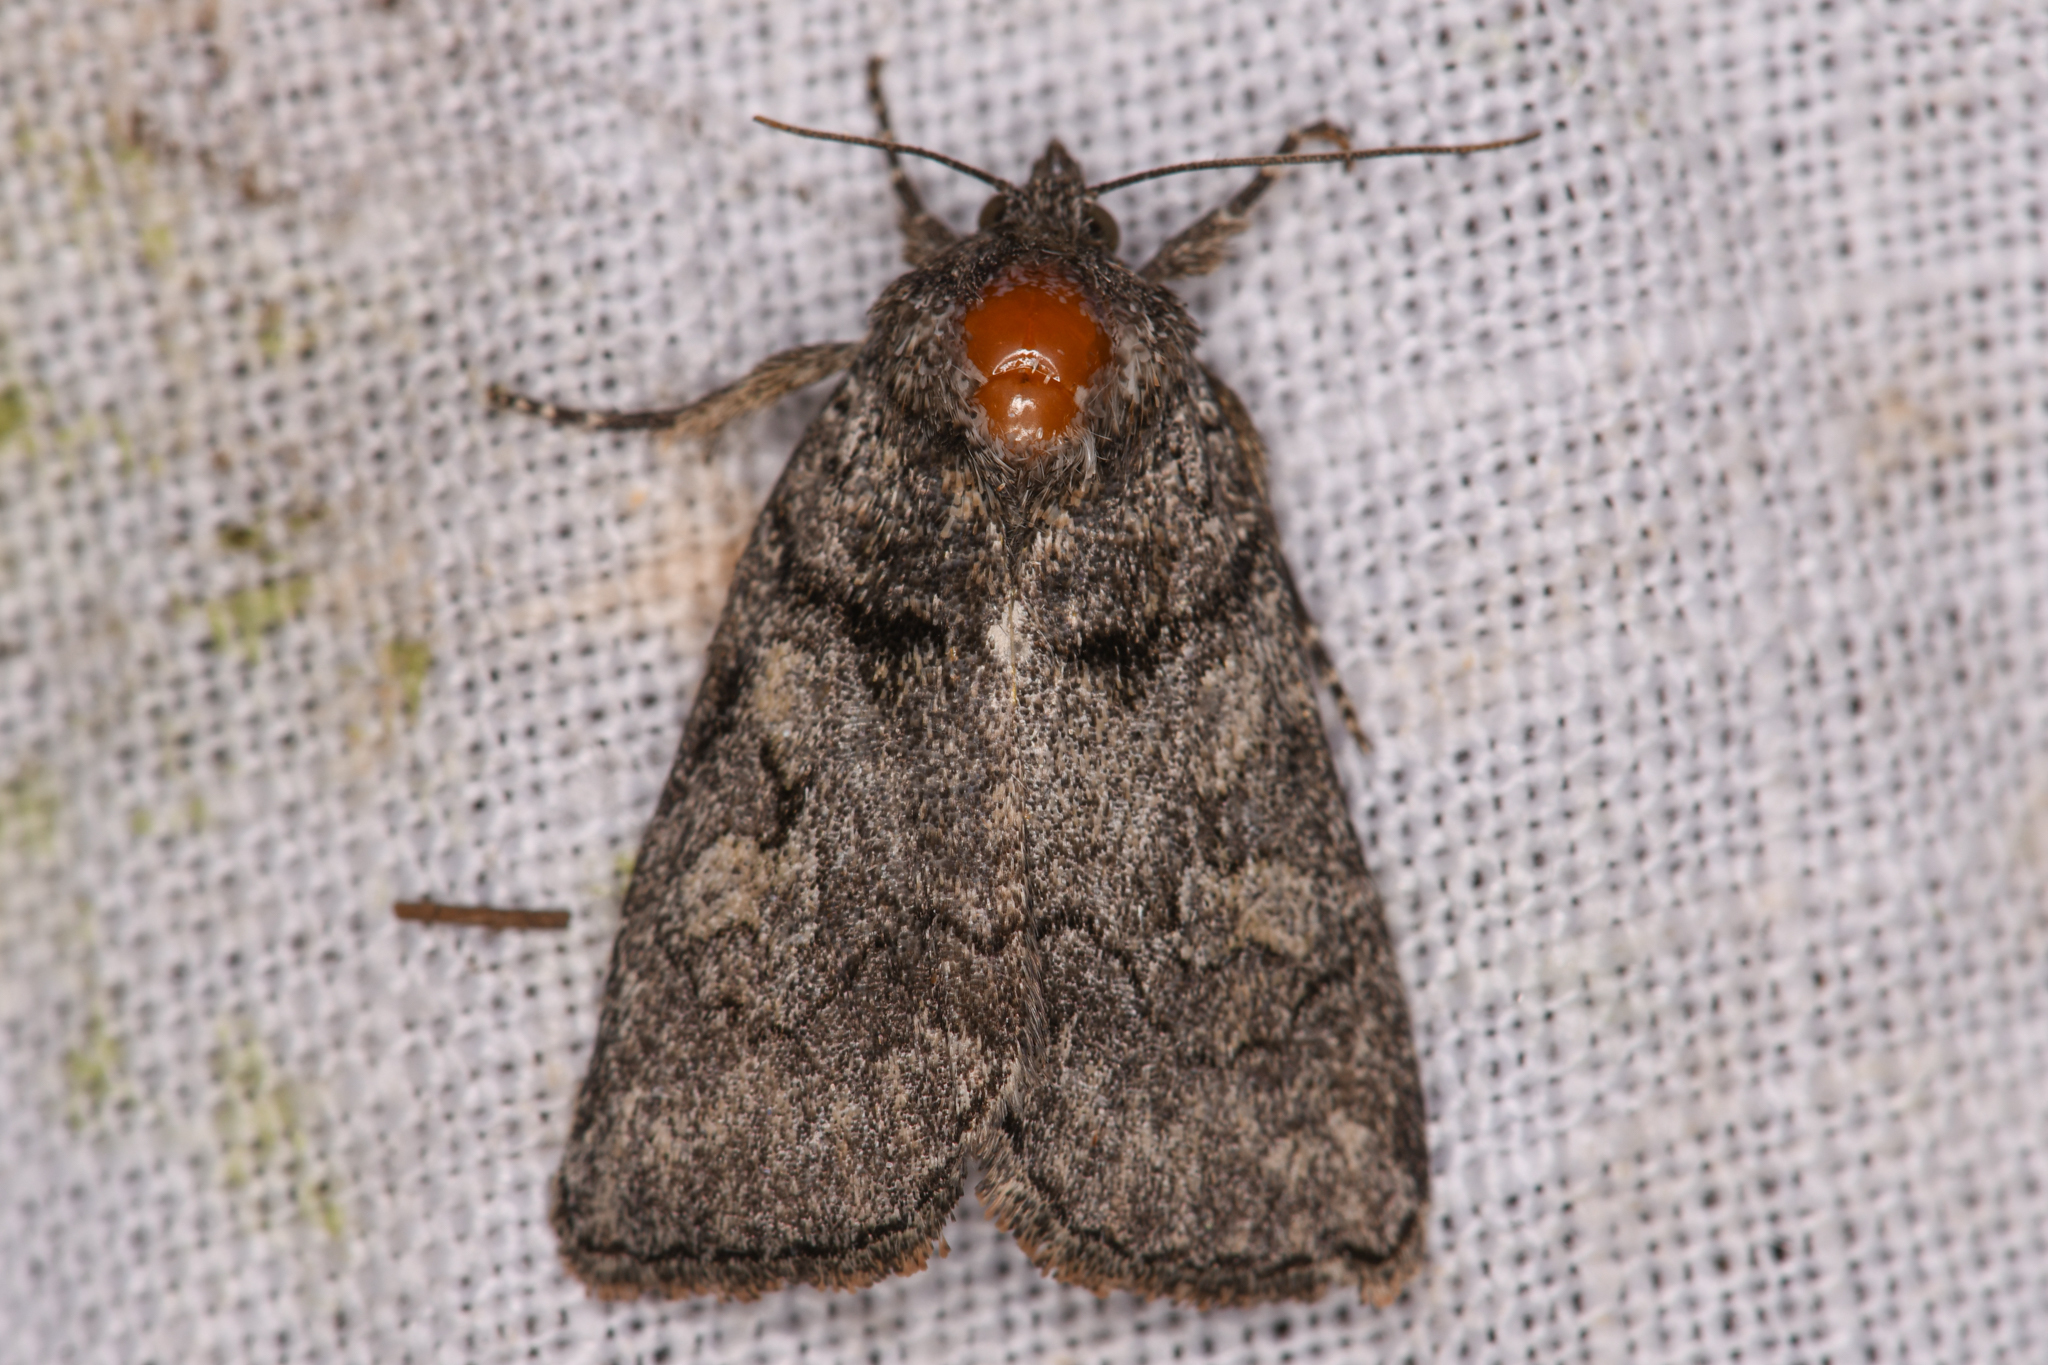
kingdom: Animalia
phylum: Arthropoda
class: Insecta
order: Lepidoptera
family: Noctuidae
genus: Cosmia
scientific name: Cosmia praeacuta
